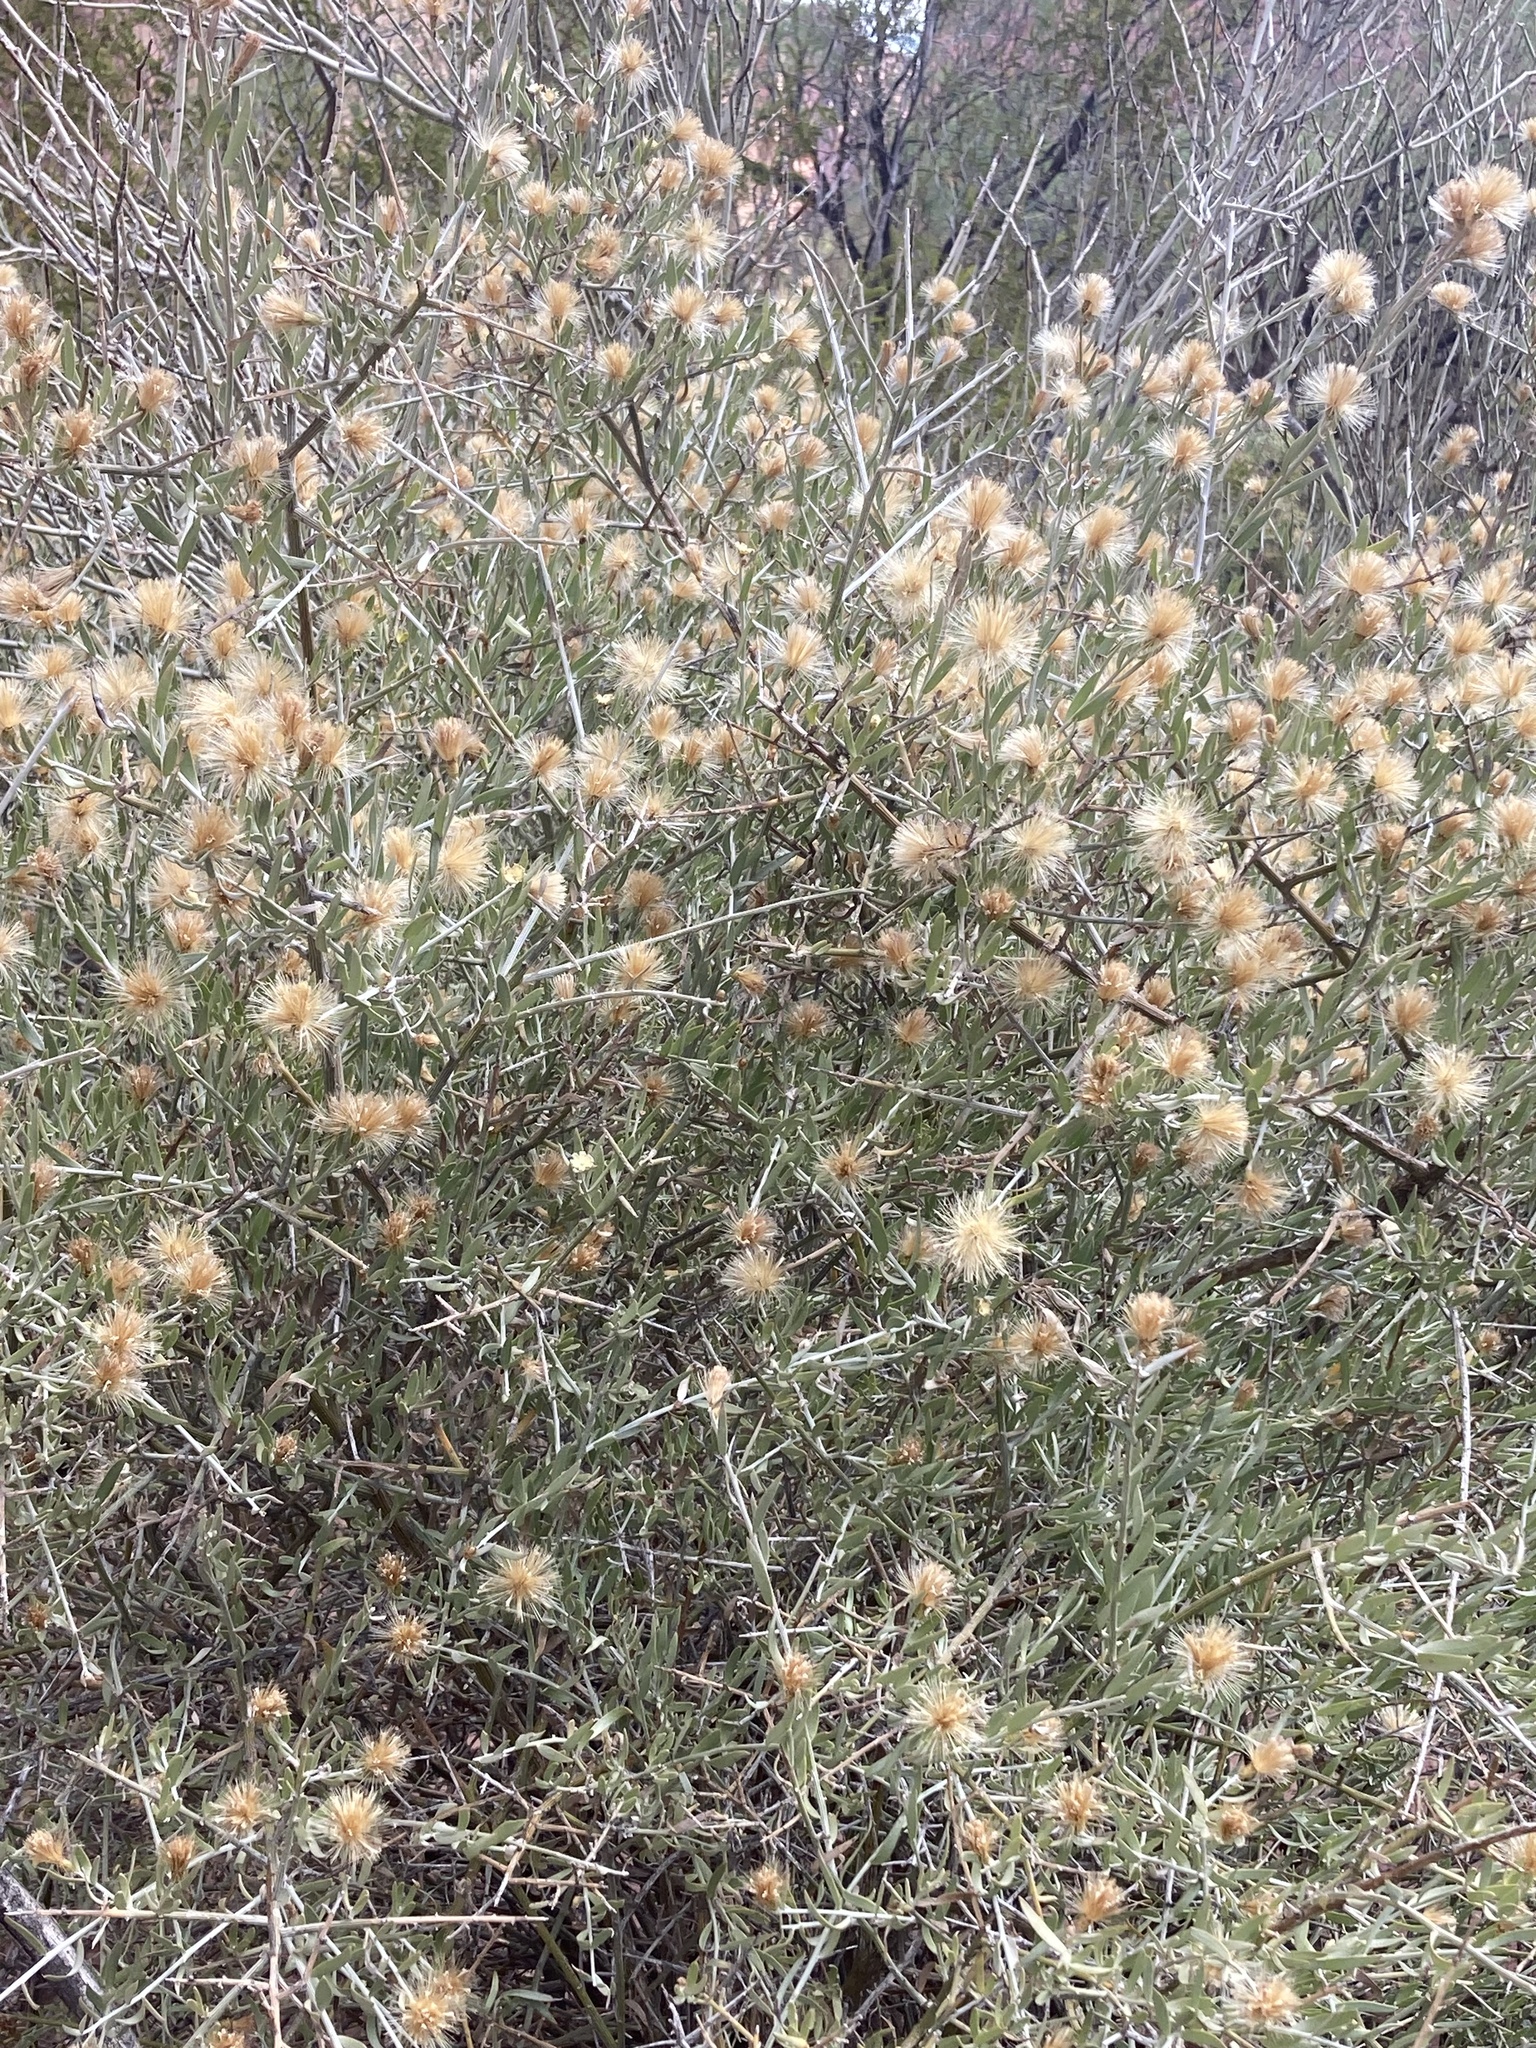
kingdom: Plantae
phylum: Tracheophyta
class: Magnoliopsida
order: Asterales
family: Asteraceae
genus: Cyclolepis
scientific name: Cyclolepis genistoides
